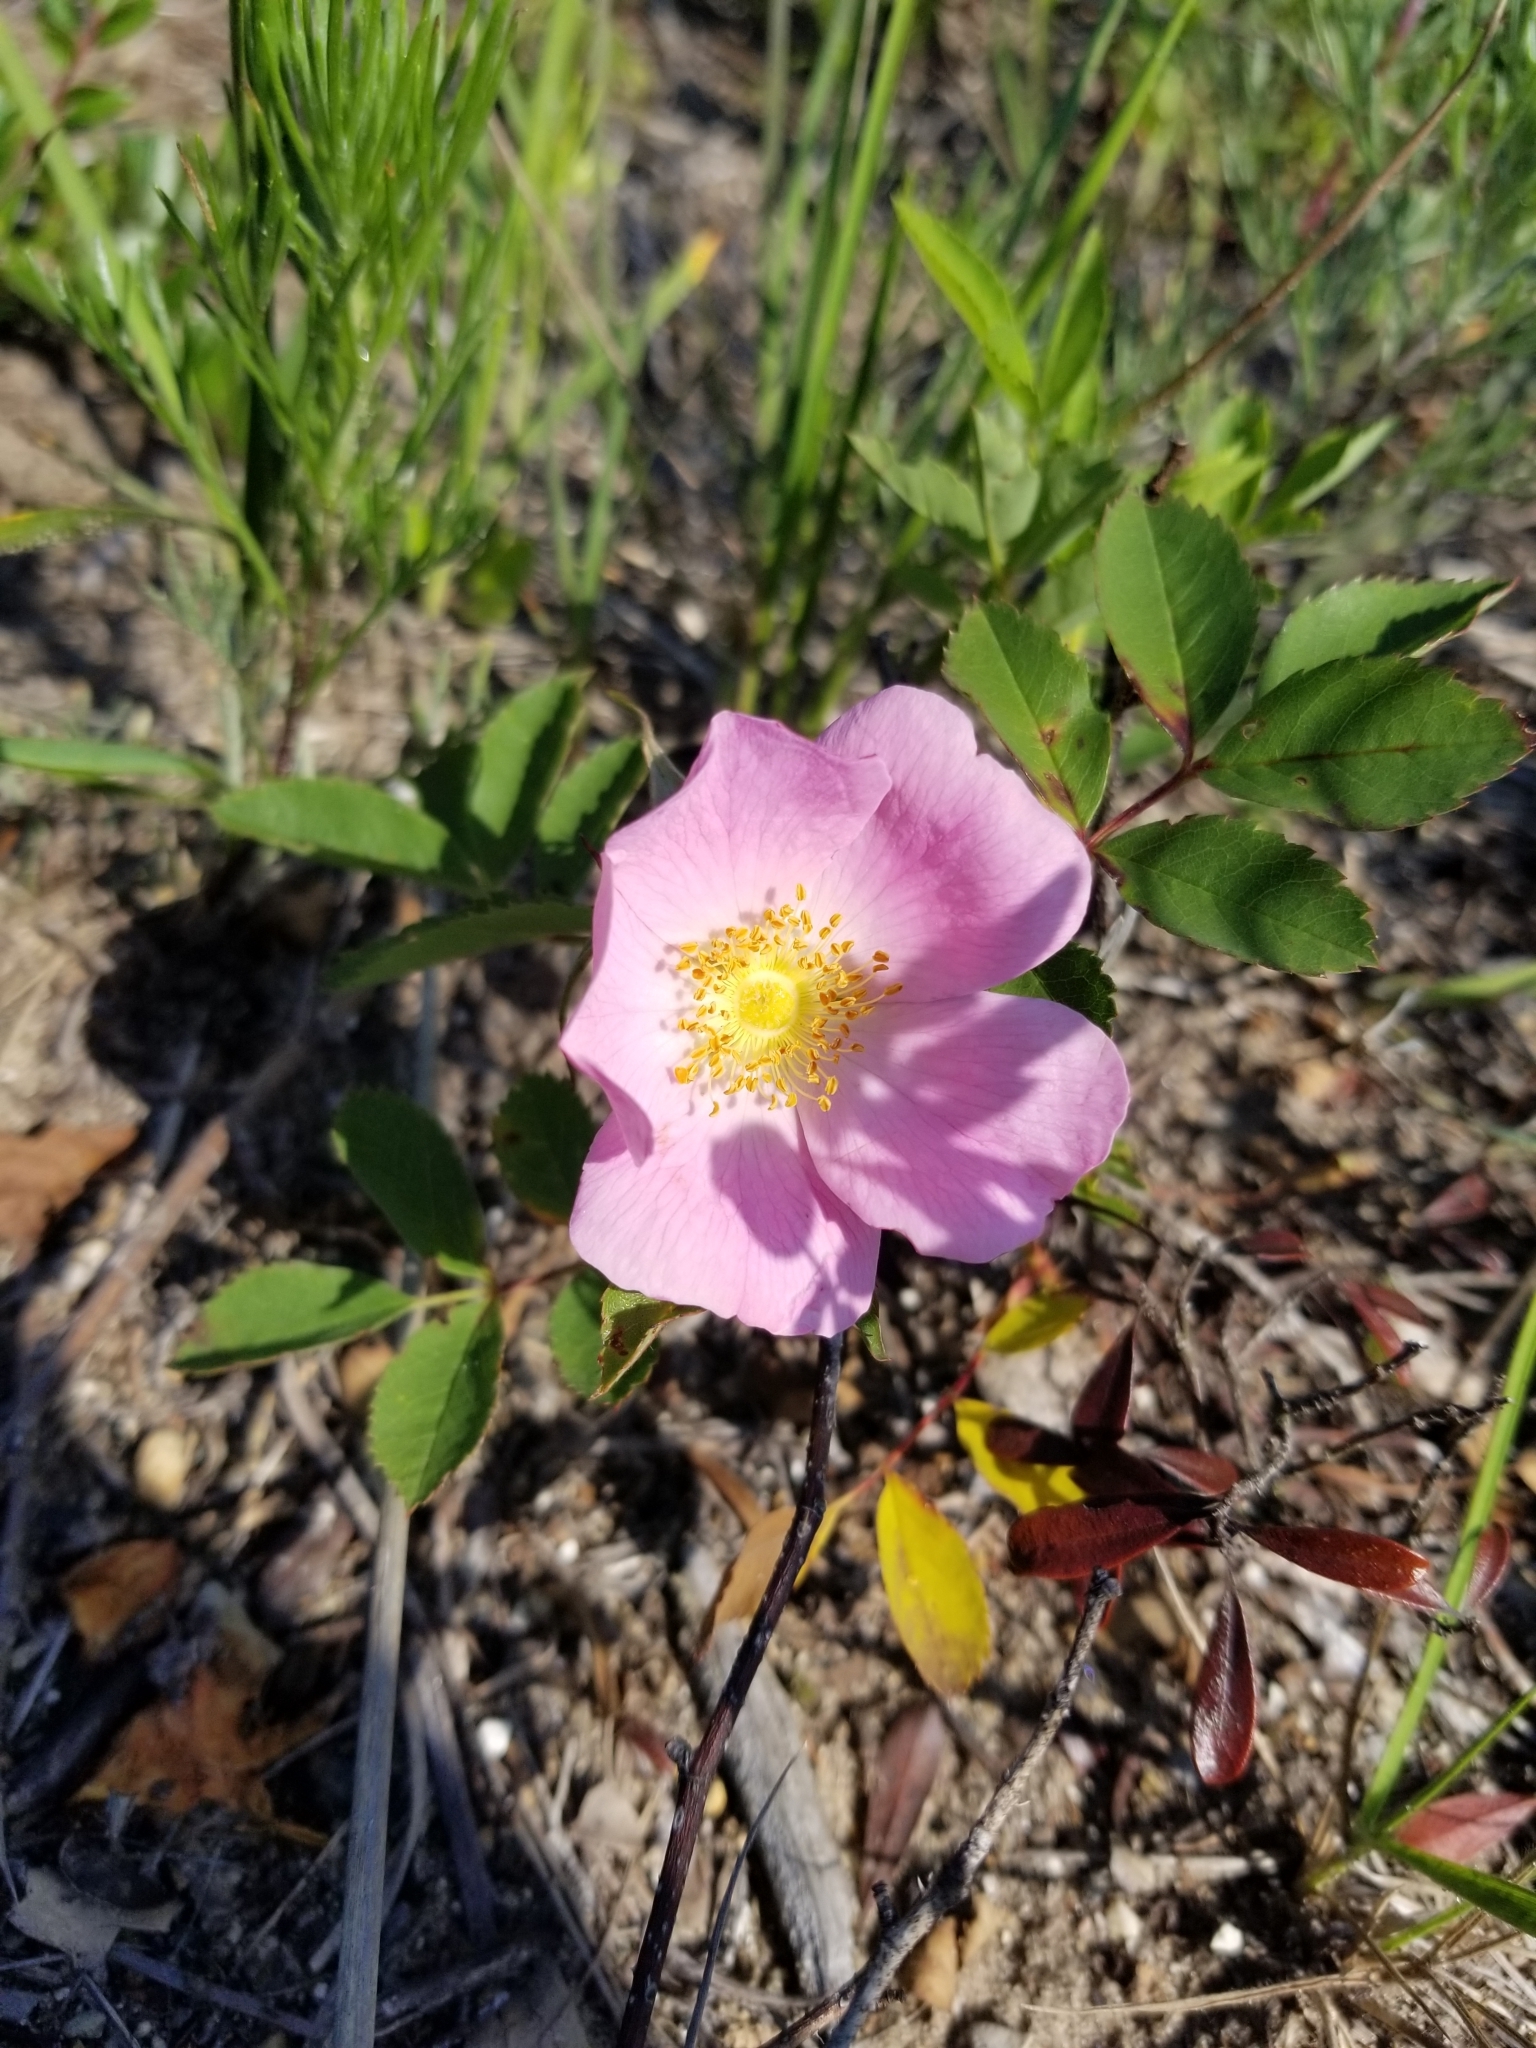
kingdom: Plantae
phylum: Tracheophyta
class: Magnoliopsida
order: Rosales
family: Rosaceae
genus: Rosa
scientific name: Rosa arkansana
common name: Prairie rose
